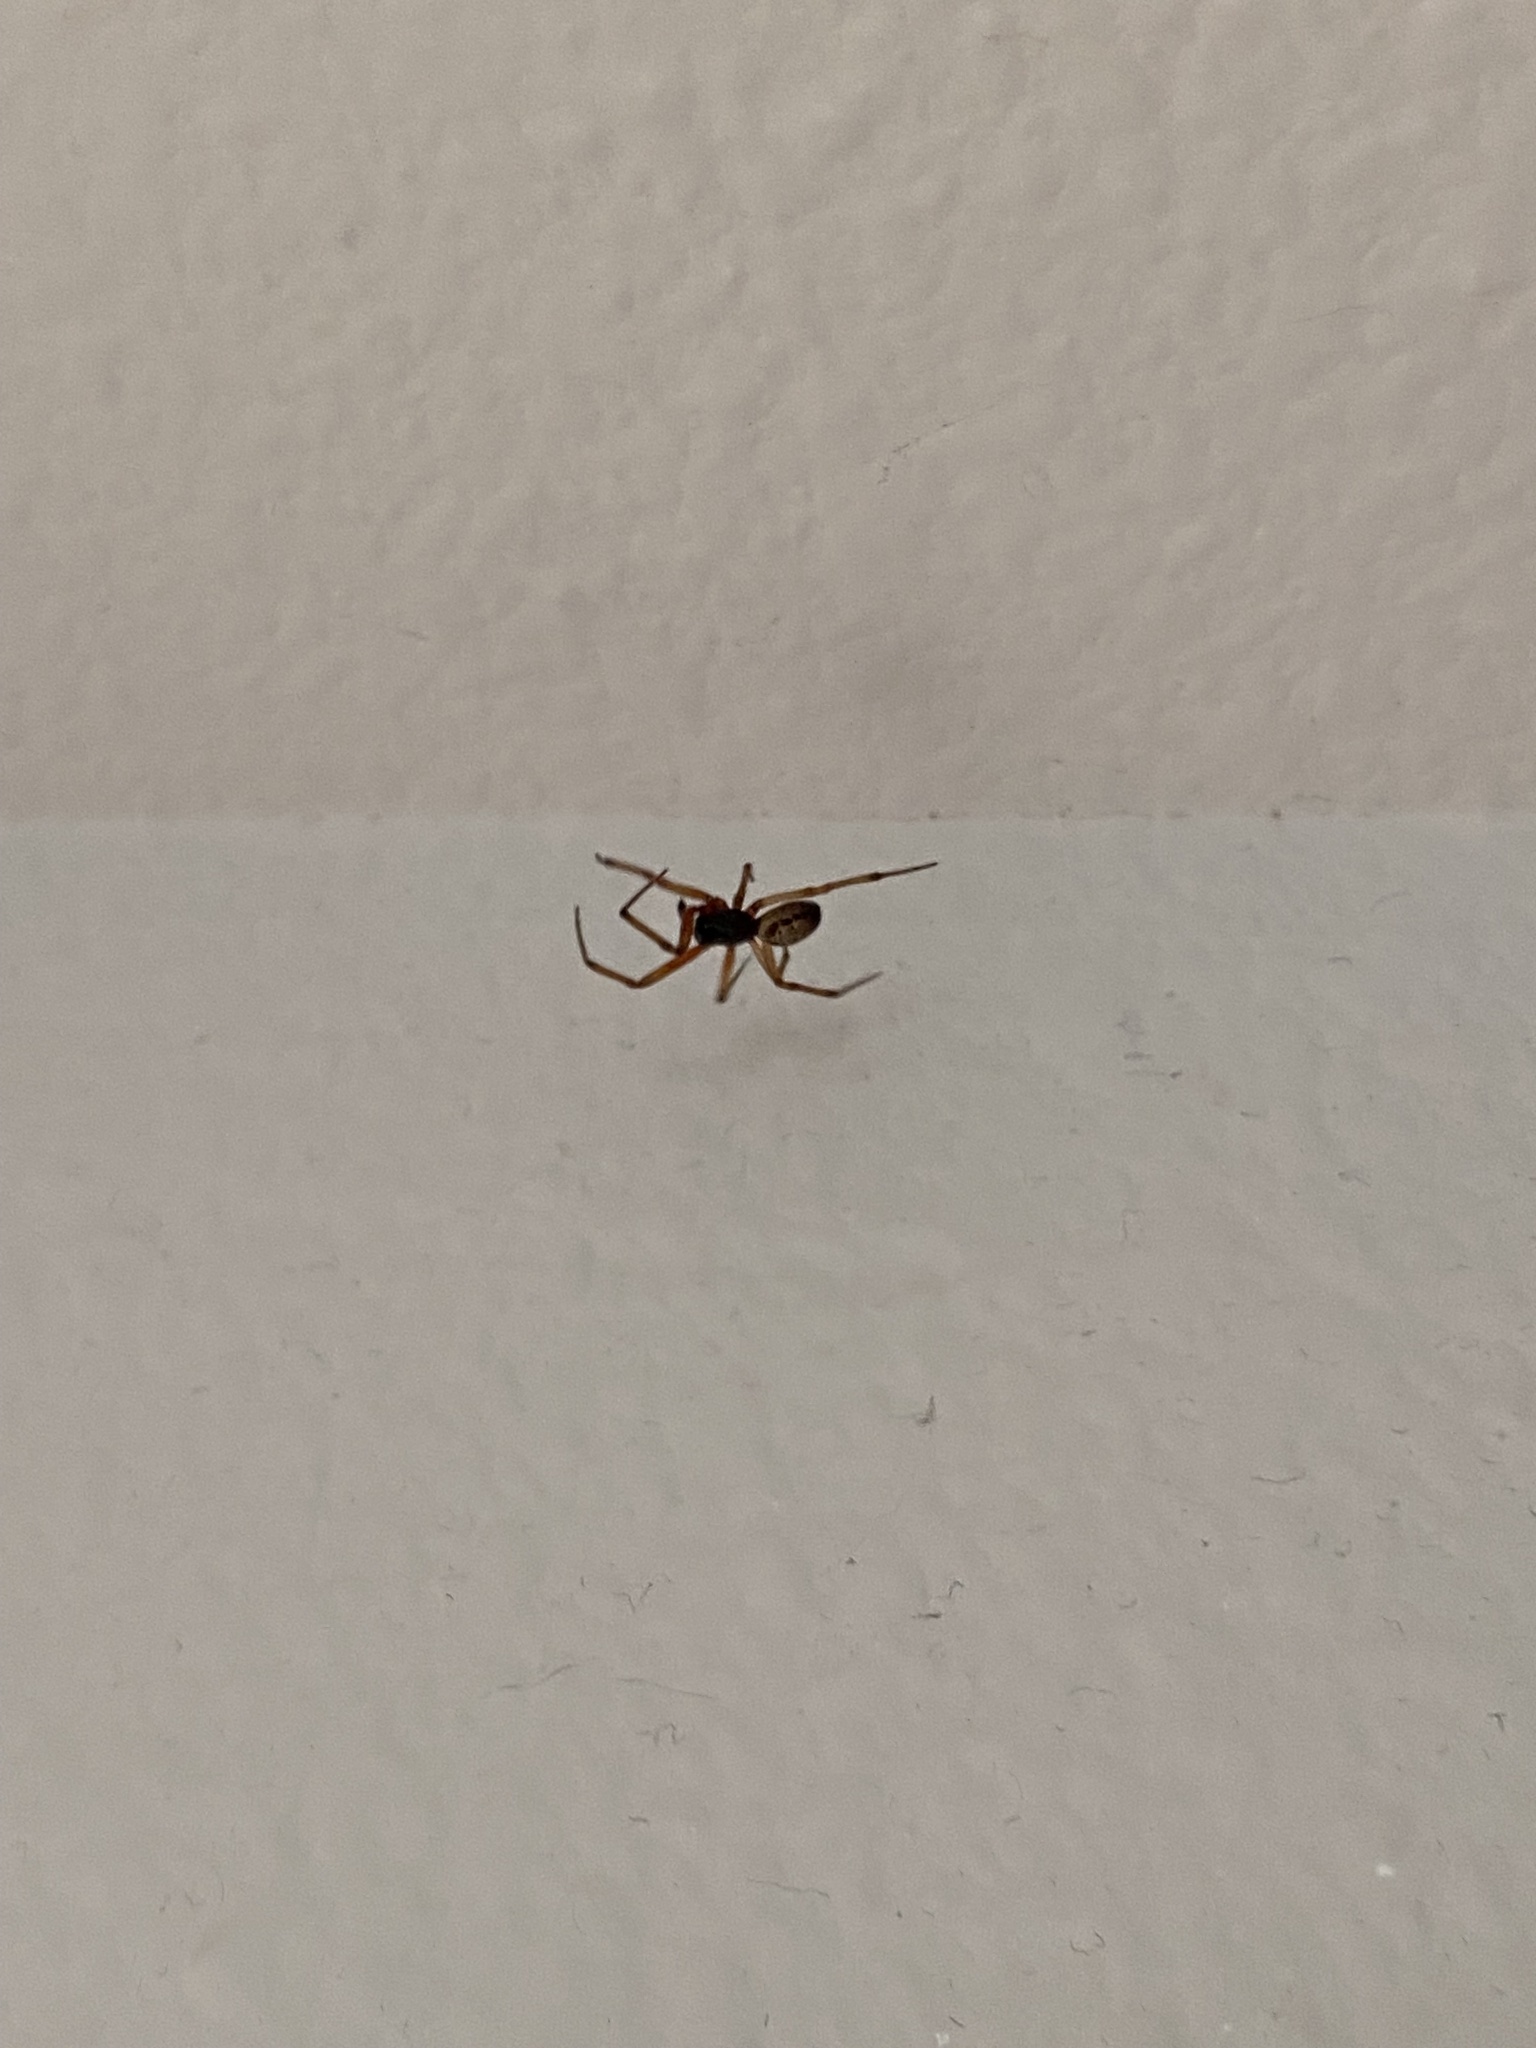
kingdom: Animalia
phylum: Arthropoda
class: Arachnida
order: Araneae
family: Theridiidae
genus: Steatoda
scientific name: Steatoda nobilis
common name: Cobweb weaver
